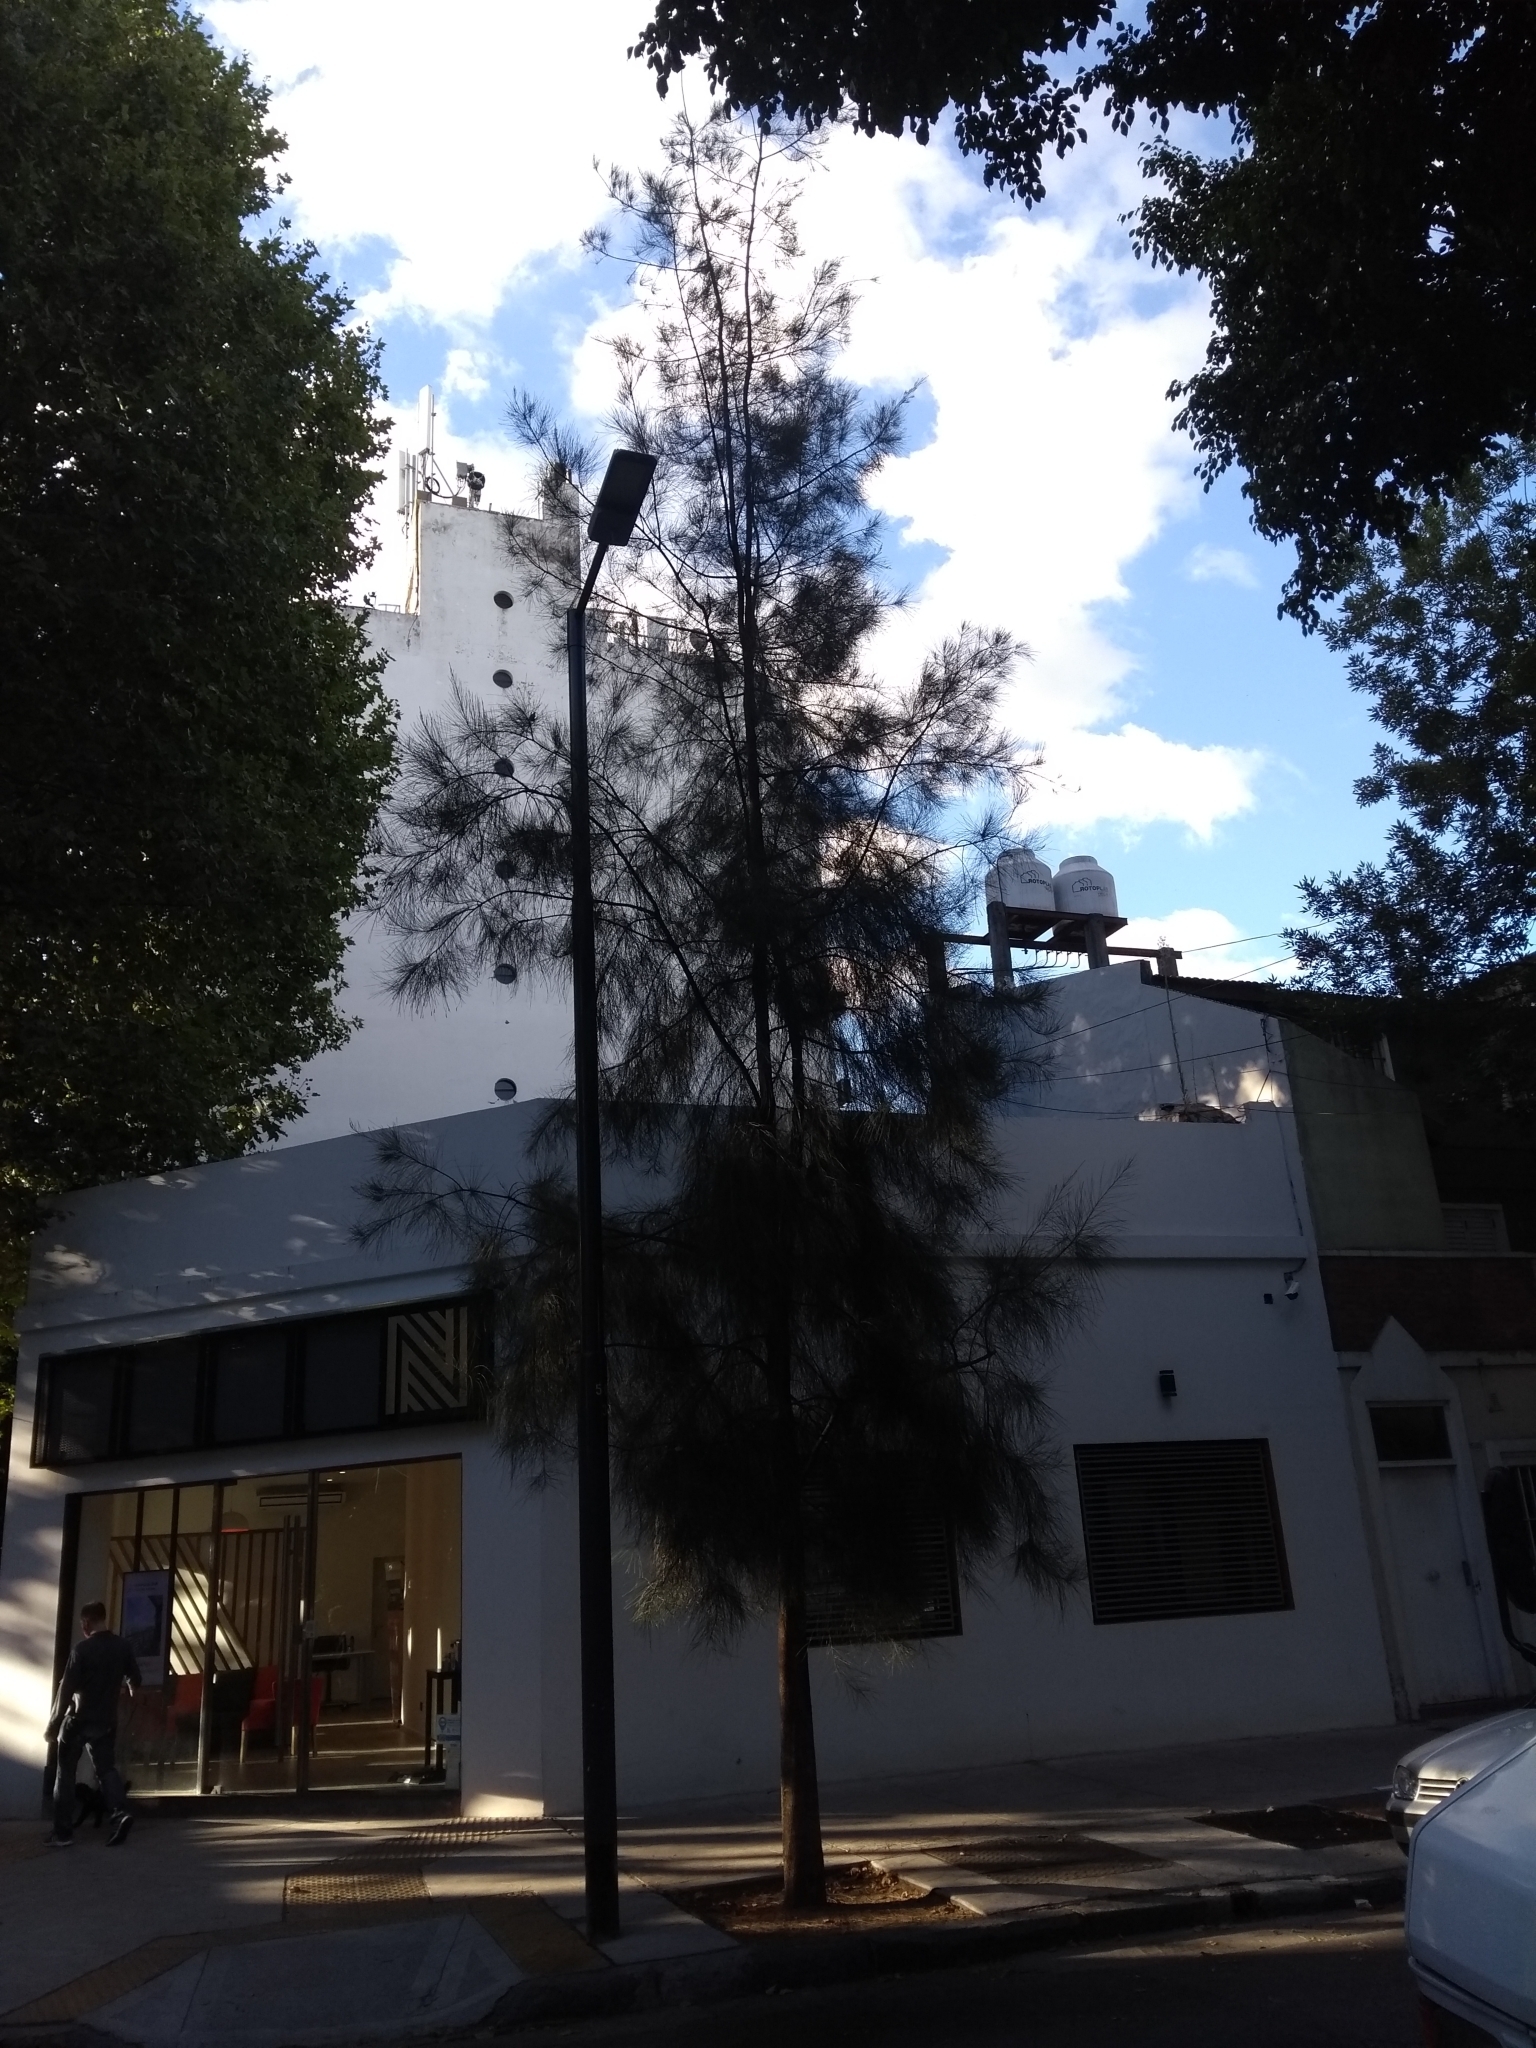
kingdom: Plantae
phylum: Tracheophyta
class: Magnoliopsida
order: Fagales
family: Casuarinaceae
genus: Casuarina
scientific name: Casuarina cunninghamiana
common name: River sheoak
